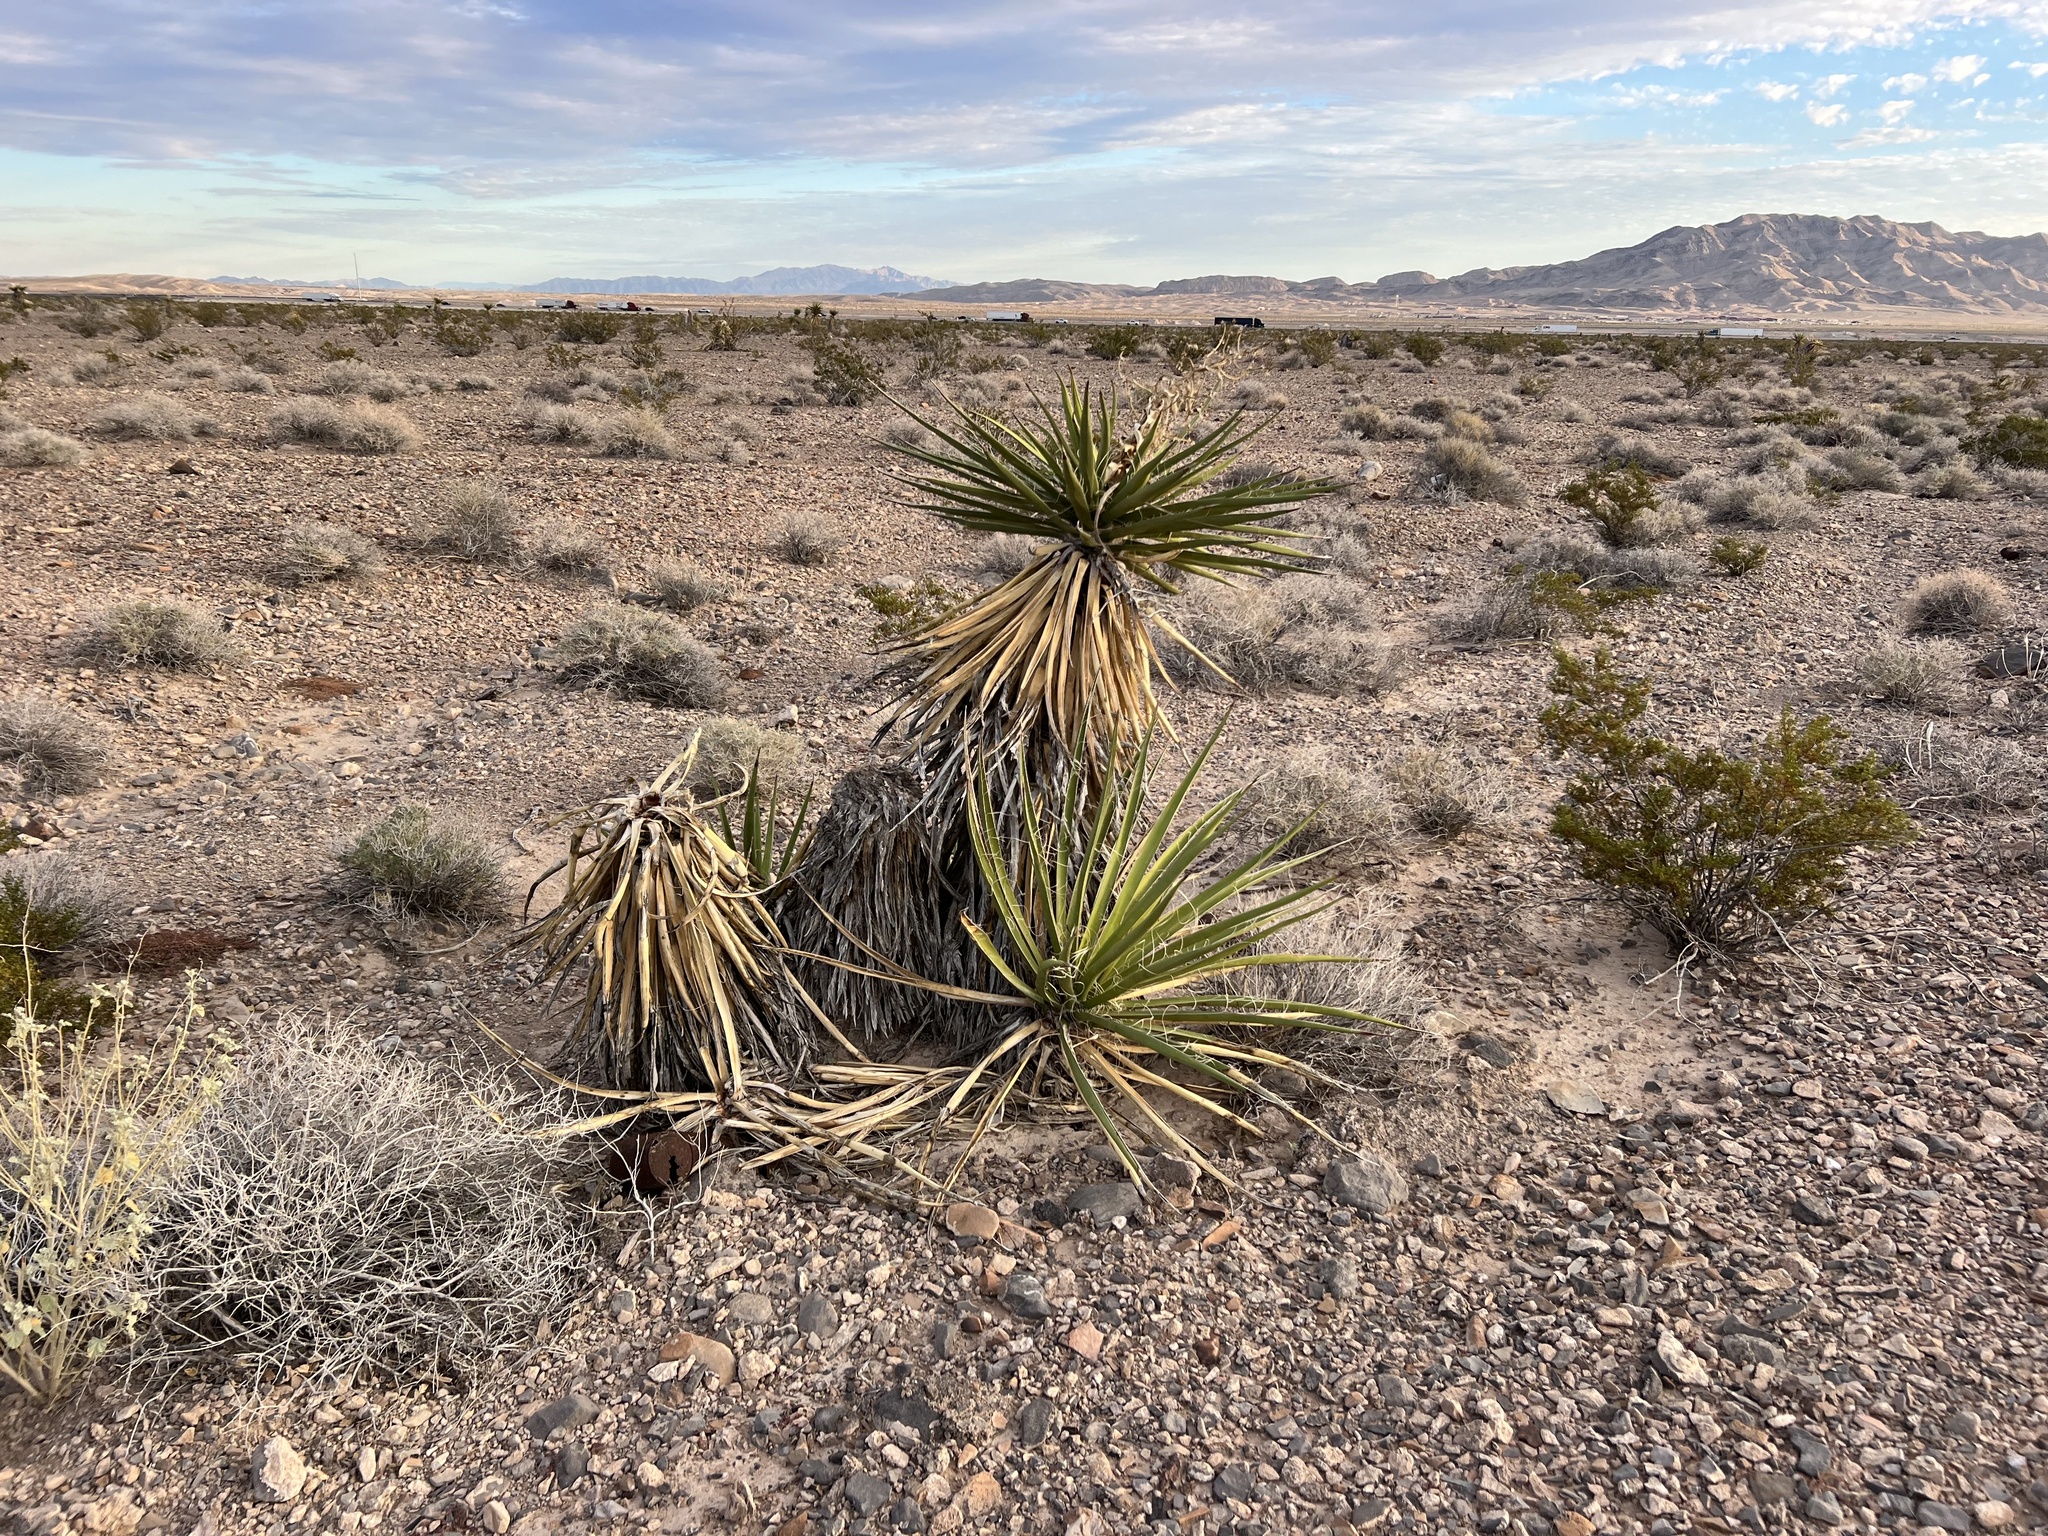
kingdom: Plantae
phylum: Tracheophyta
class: Liliopsida
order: Asparagales
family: Asparagaceae
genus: Yucca
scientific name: Yucca schidigera
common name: Mojave yucca
